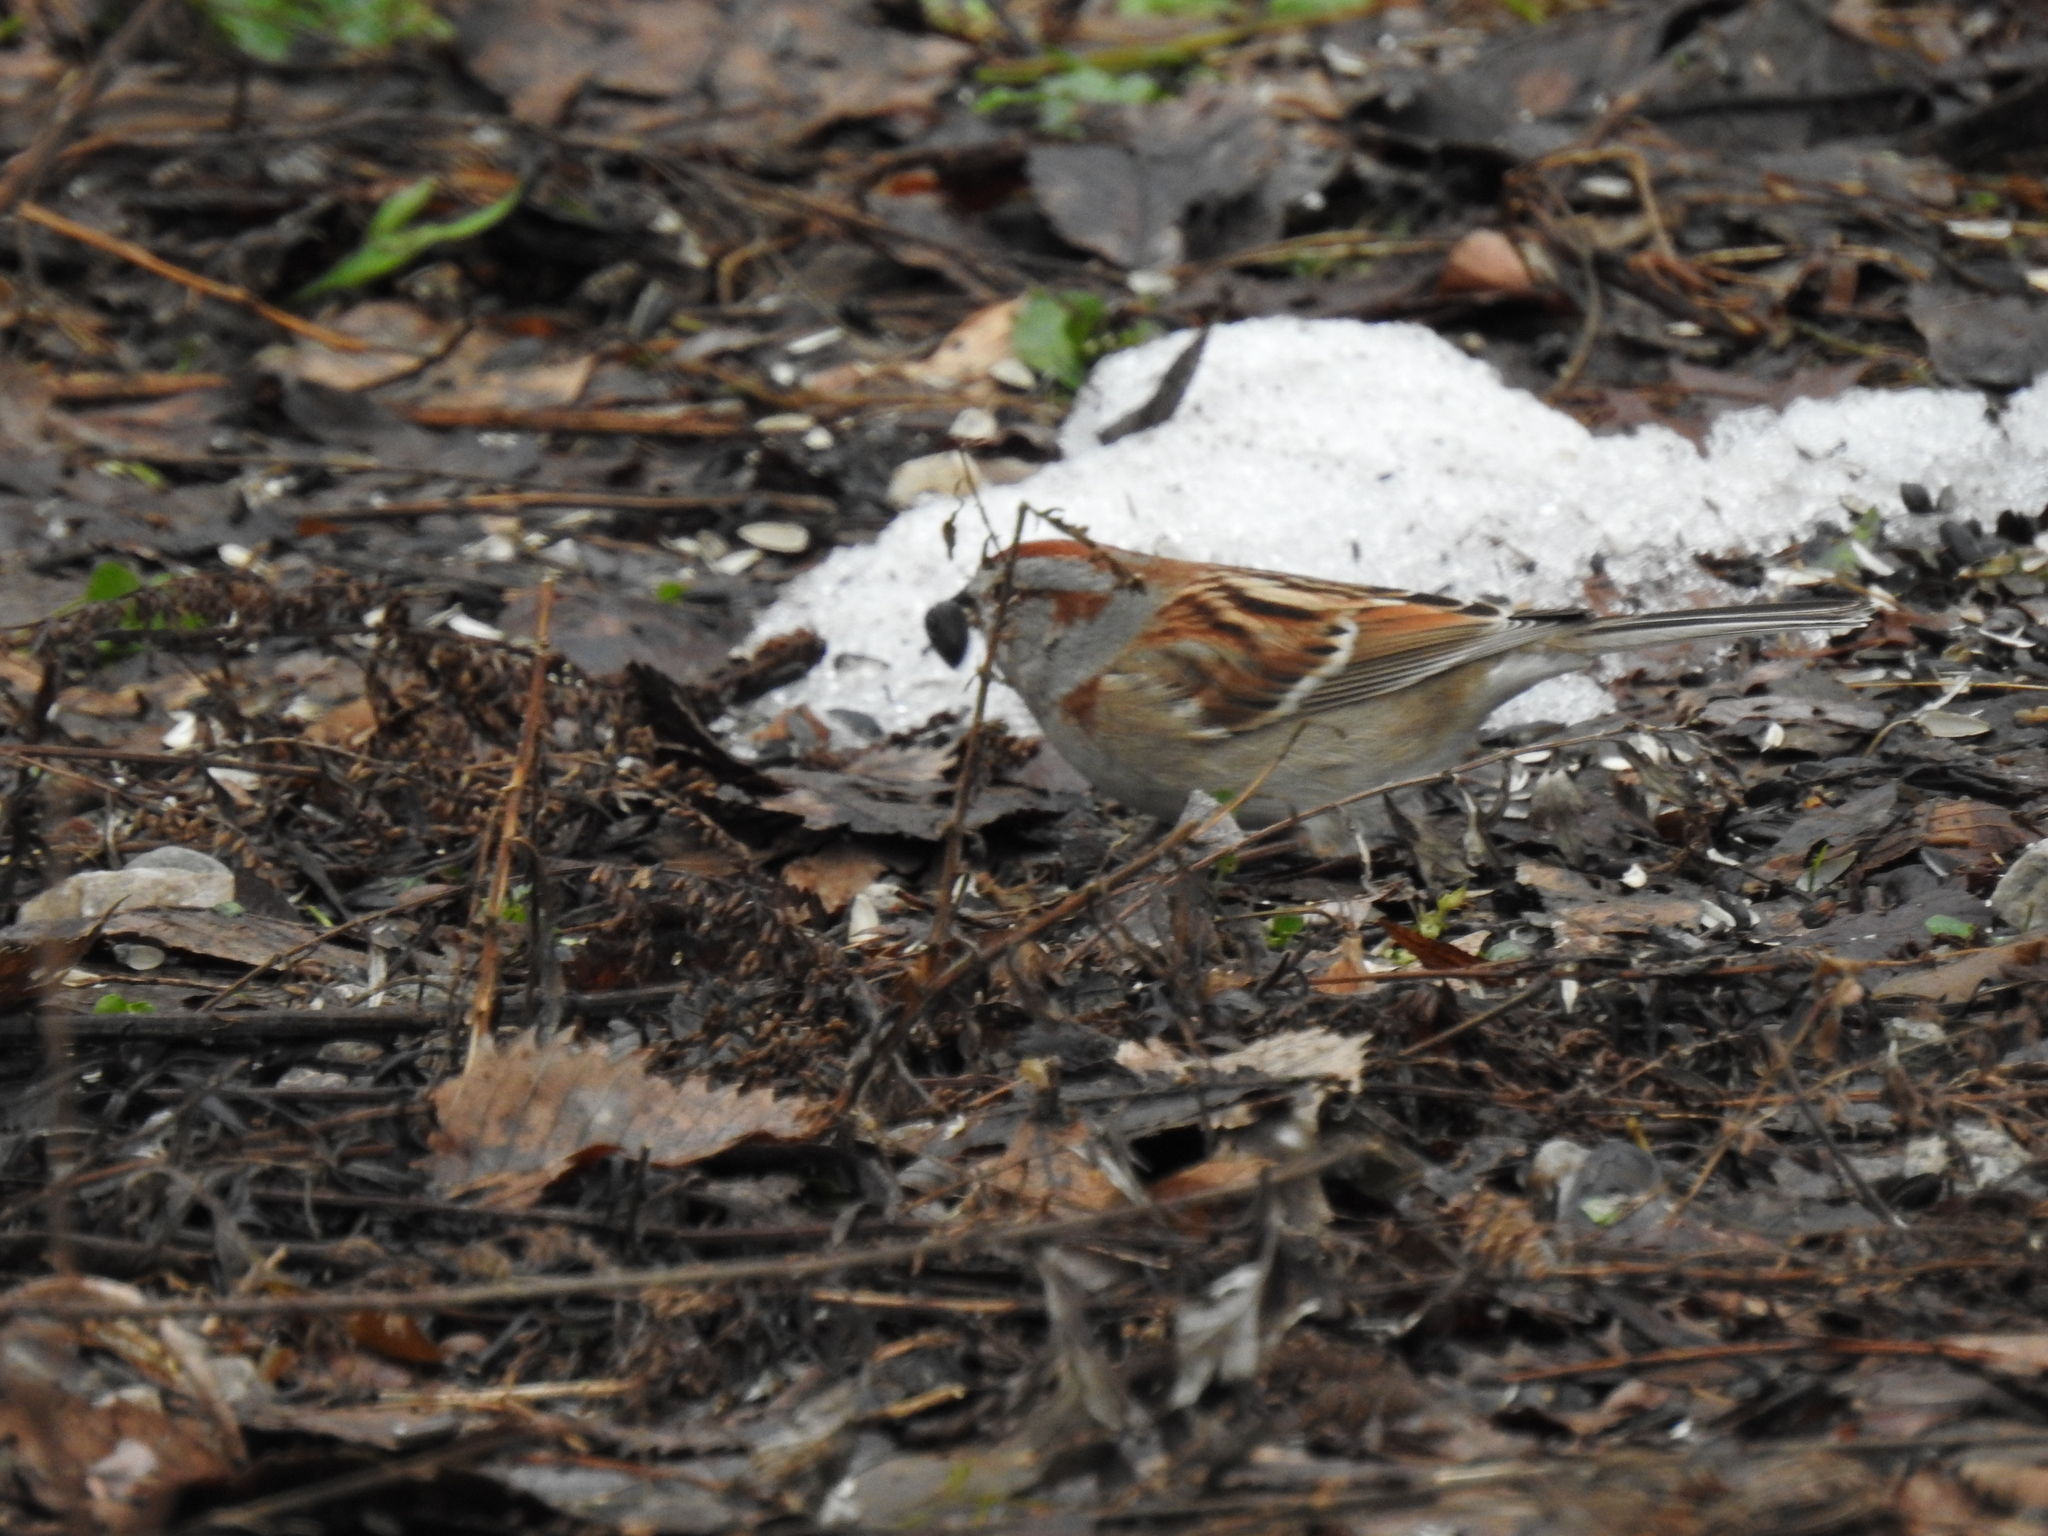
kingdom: Animalia
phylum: Chordata
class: Aves
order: Passeriformes
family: Passerellidae
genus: Spizelloides
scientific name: Spizelloides arborea
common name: American tree sparrow
